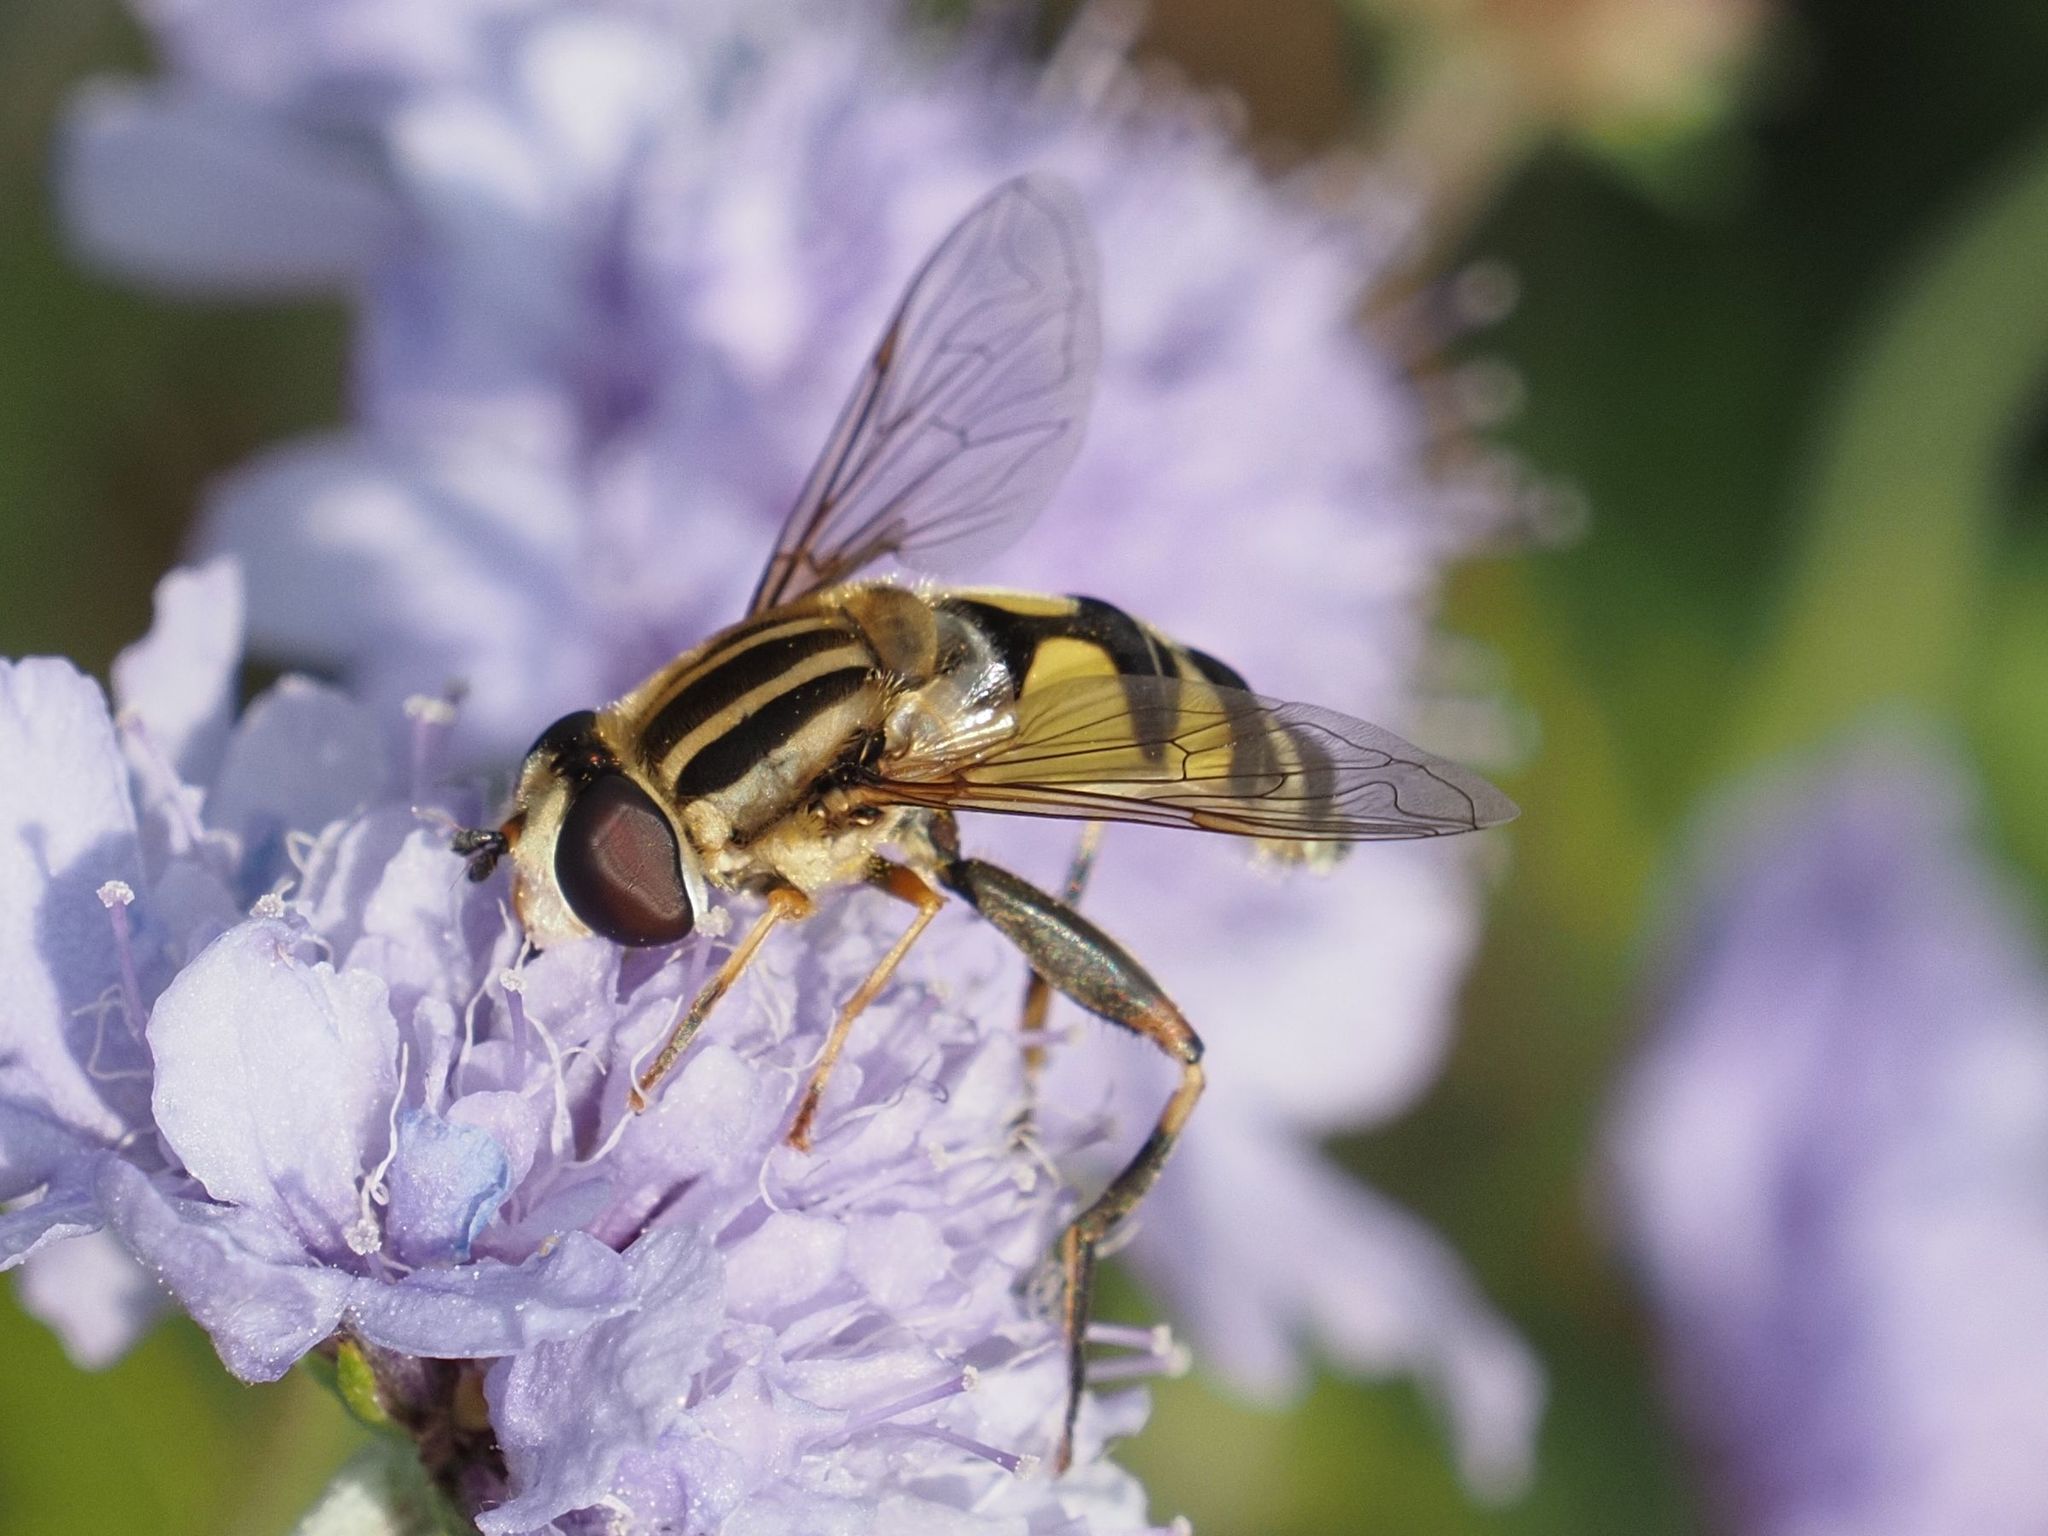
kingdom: Animalia
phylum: Arthropoda
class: Insecta
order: Diptera
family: Syrphidae
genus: Helophilus
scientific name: Helophilus trivittatus
